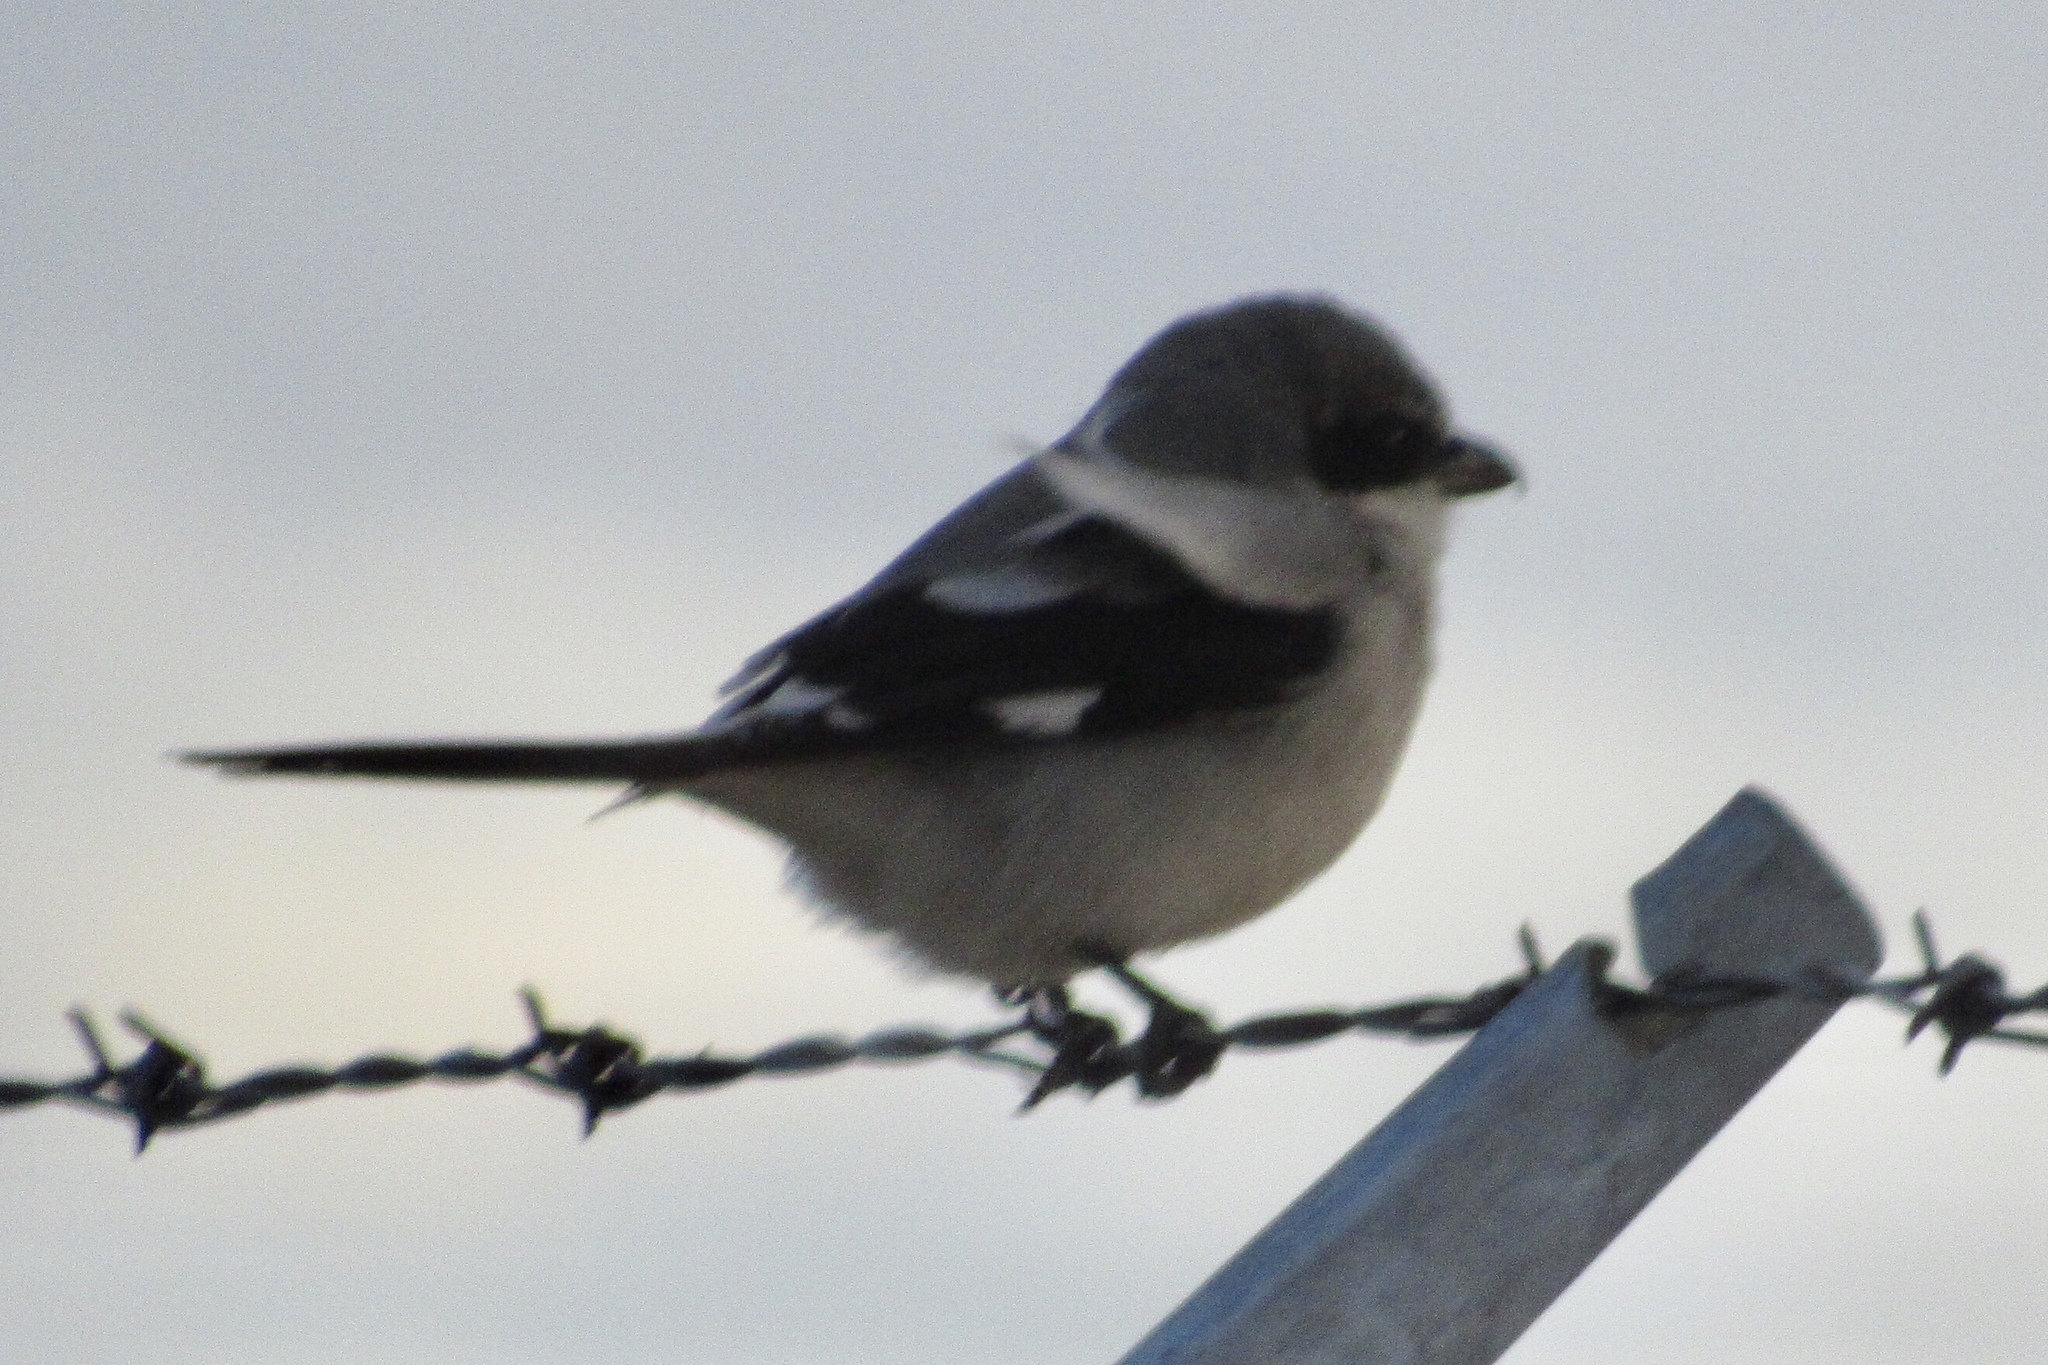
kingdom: Animalia
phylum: Chordata
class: Aves
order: Passeriformes
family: Laniidae
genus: Lanius
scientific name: Lanius ludovicianus
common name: Loggerhead shrike
